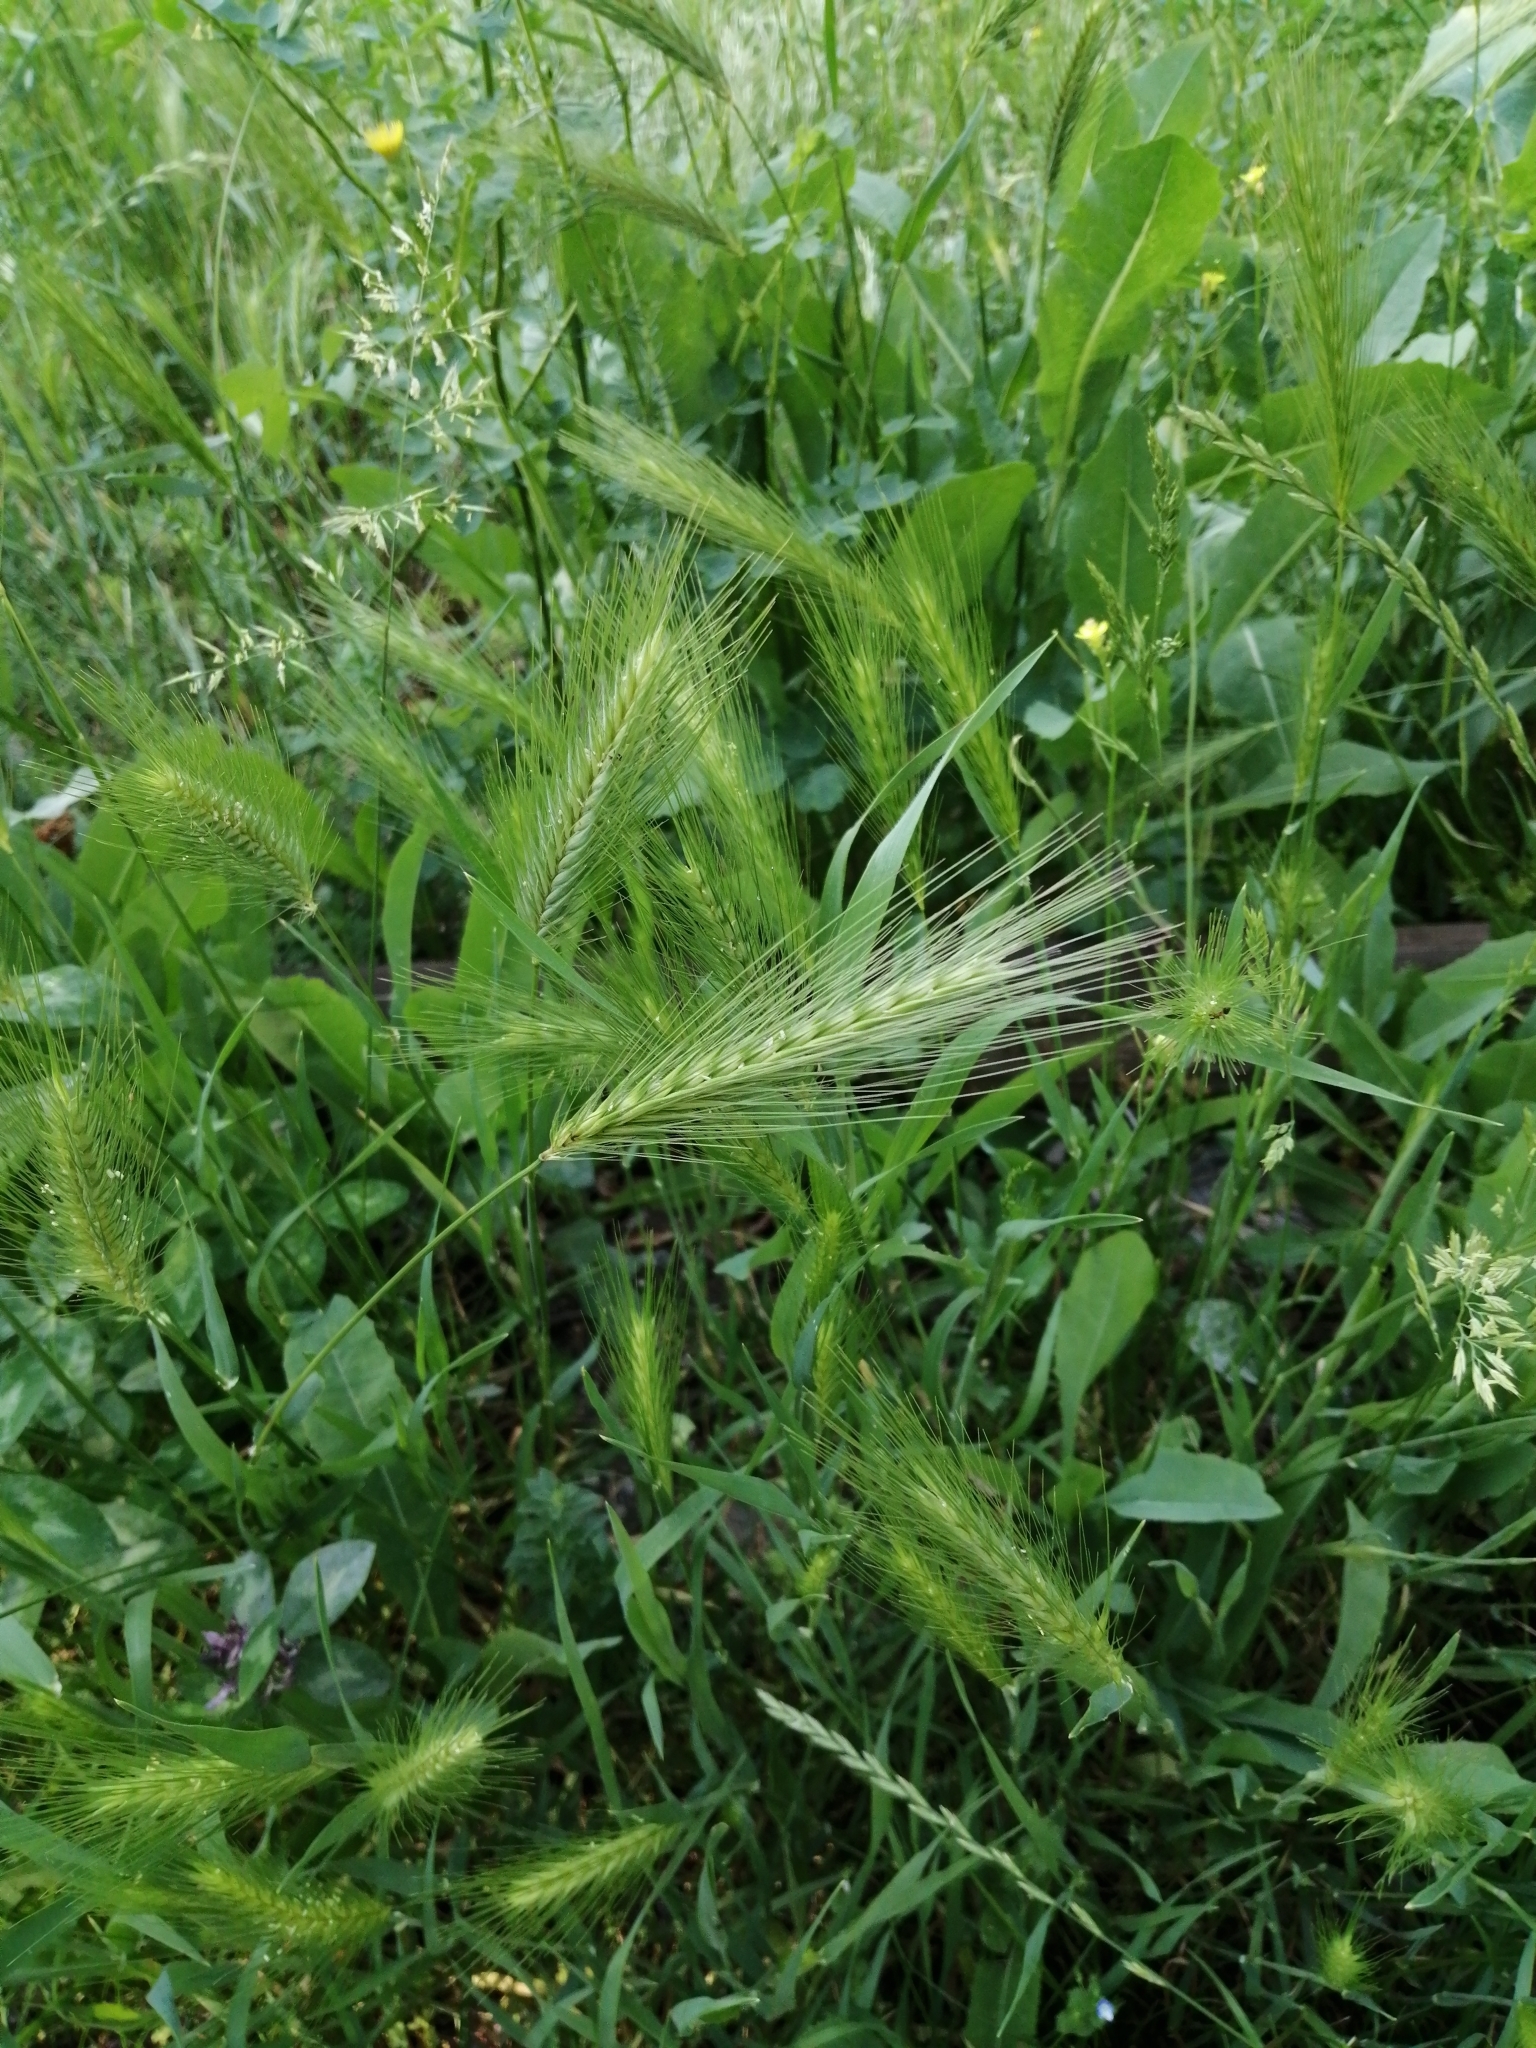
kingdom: Plantae
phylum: Tracheophyta
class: Liliopsida
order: Poales
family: Poaceae
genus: Hordeum
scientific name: Hordeum murinum
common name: Wall barley
